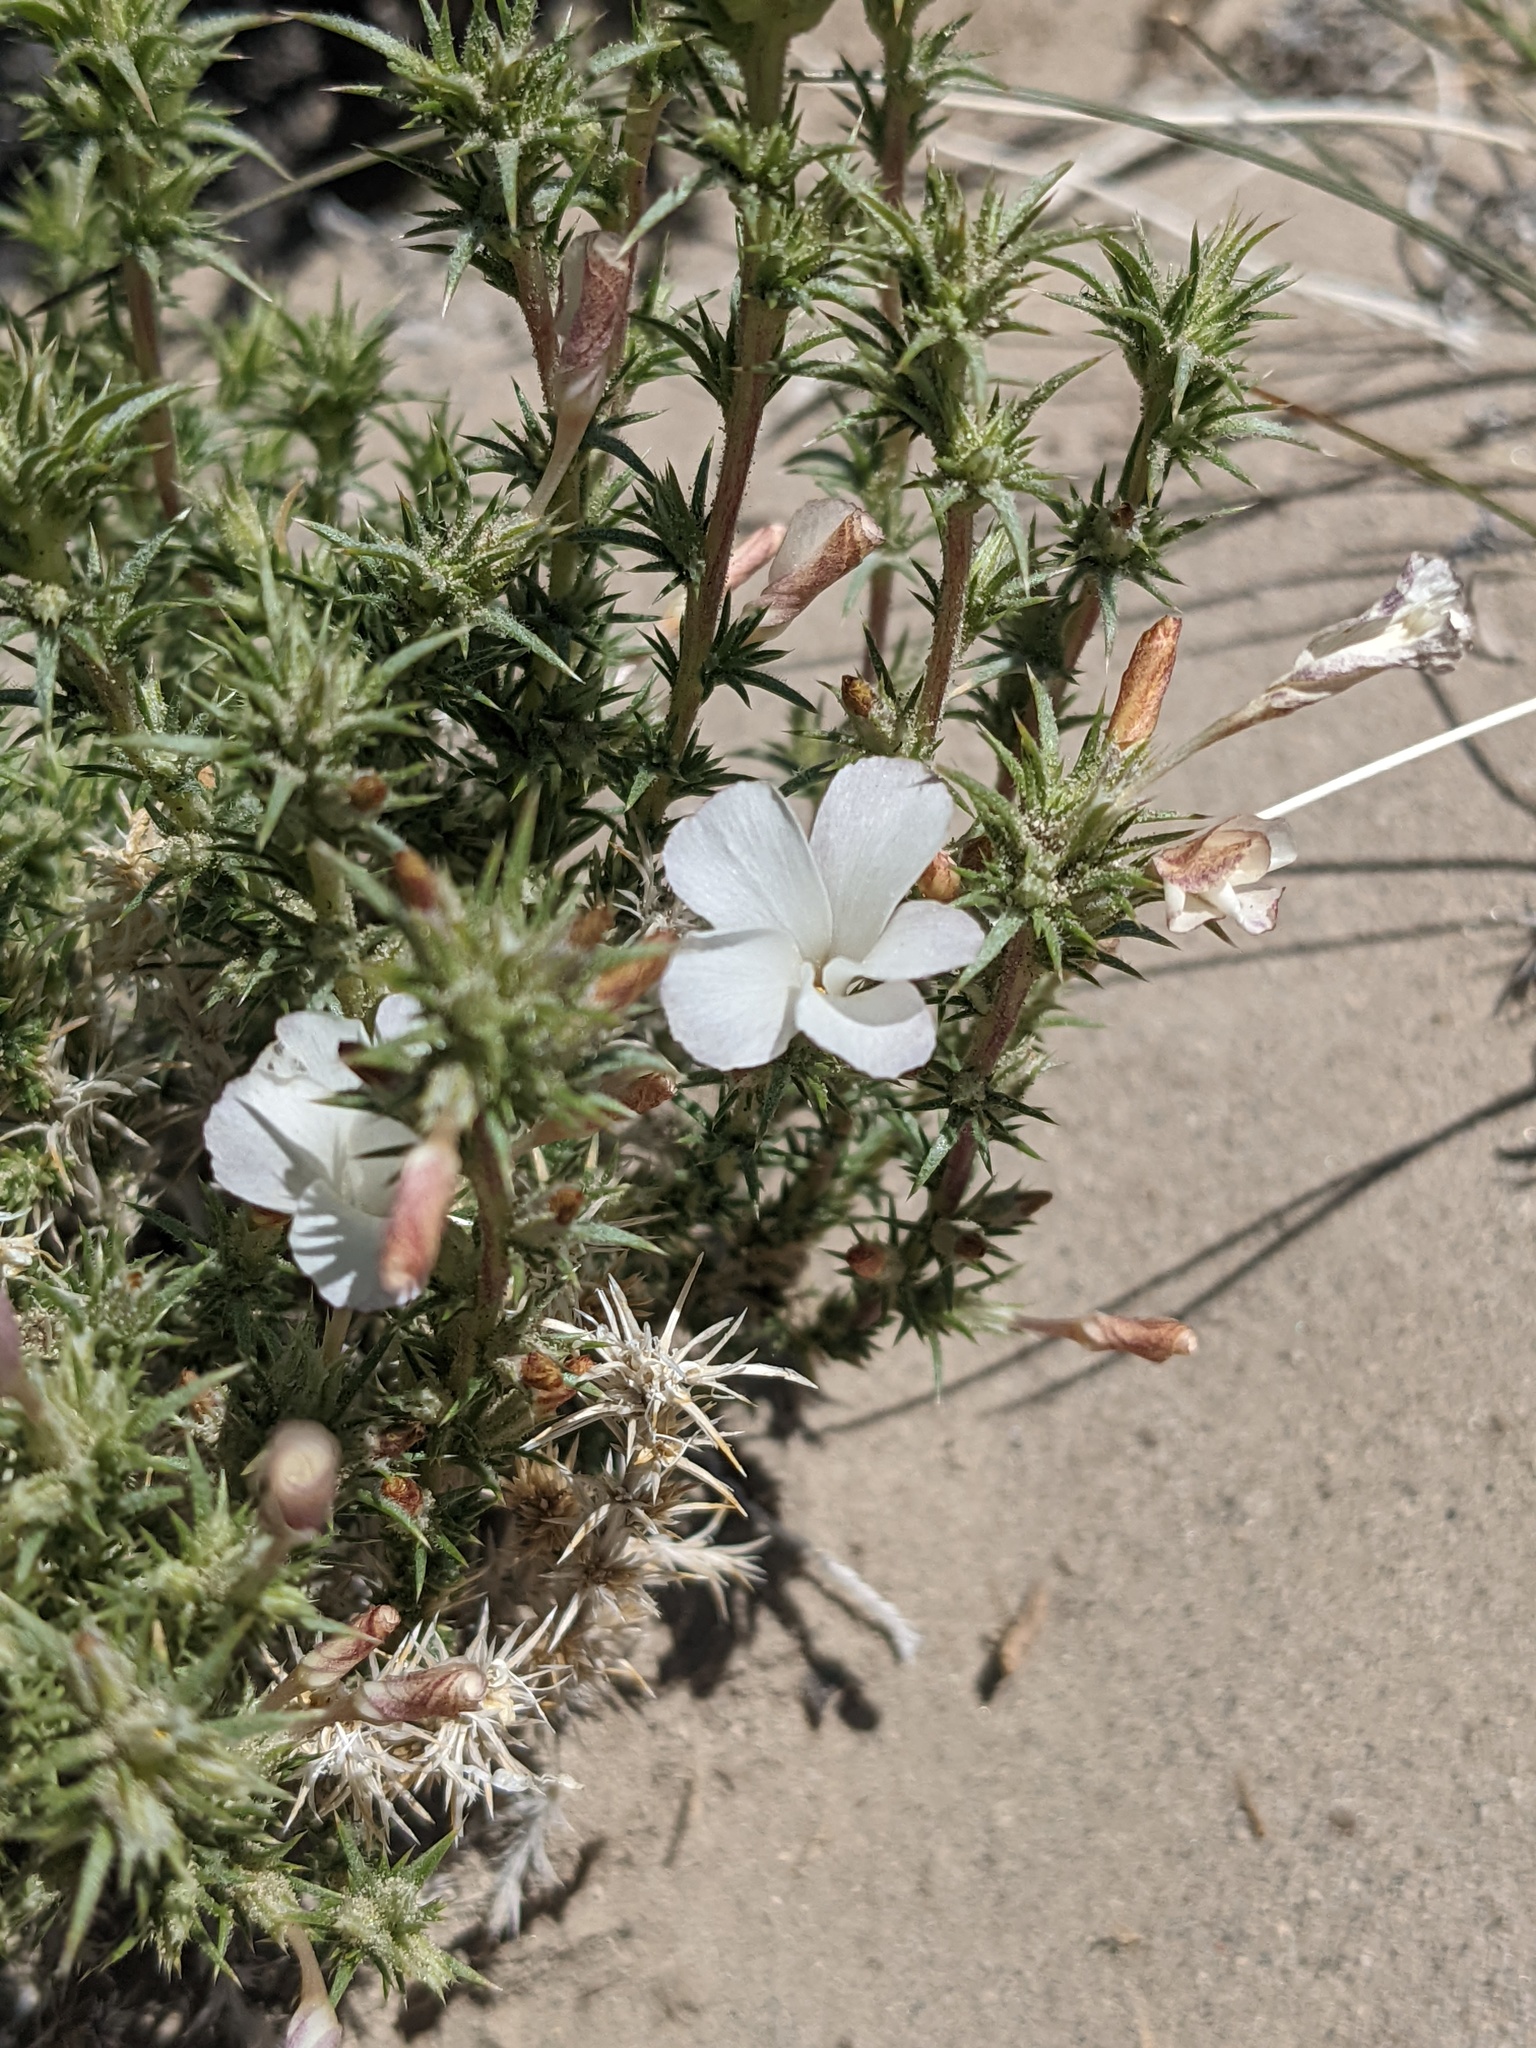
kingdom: Plantae
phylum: Tracheophyta
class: Magnoliopsida
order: Ericales
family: Polemoniaceae
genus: Linanthus
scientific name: Linanthus pungens
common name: Granite prickly phlox
